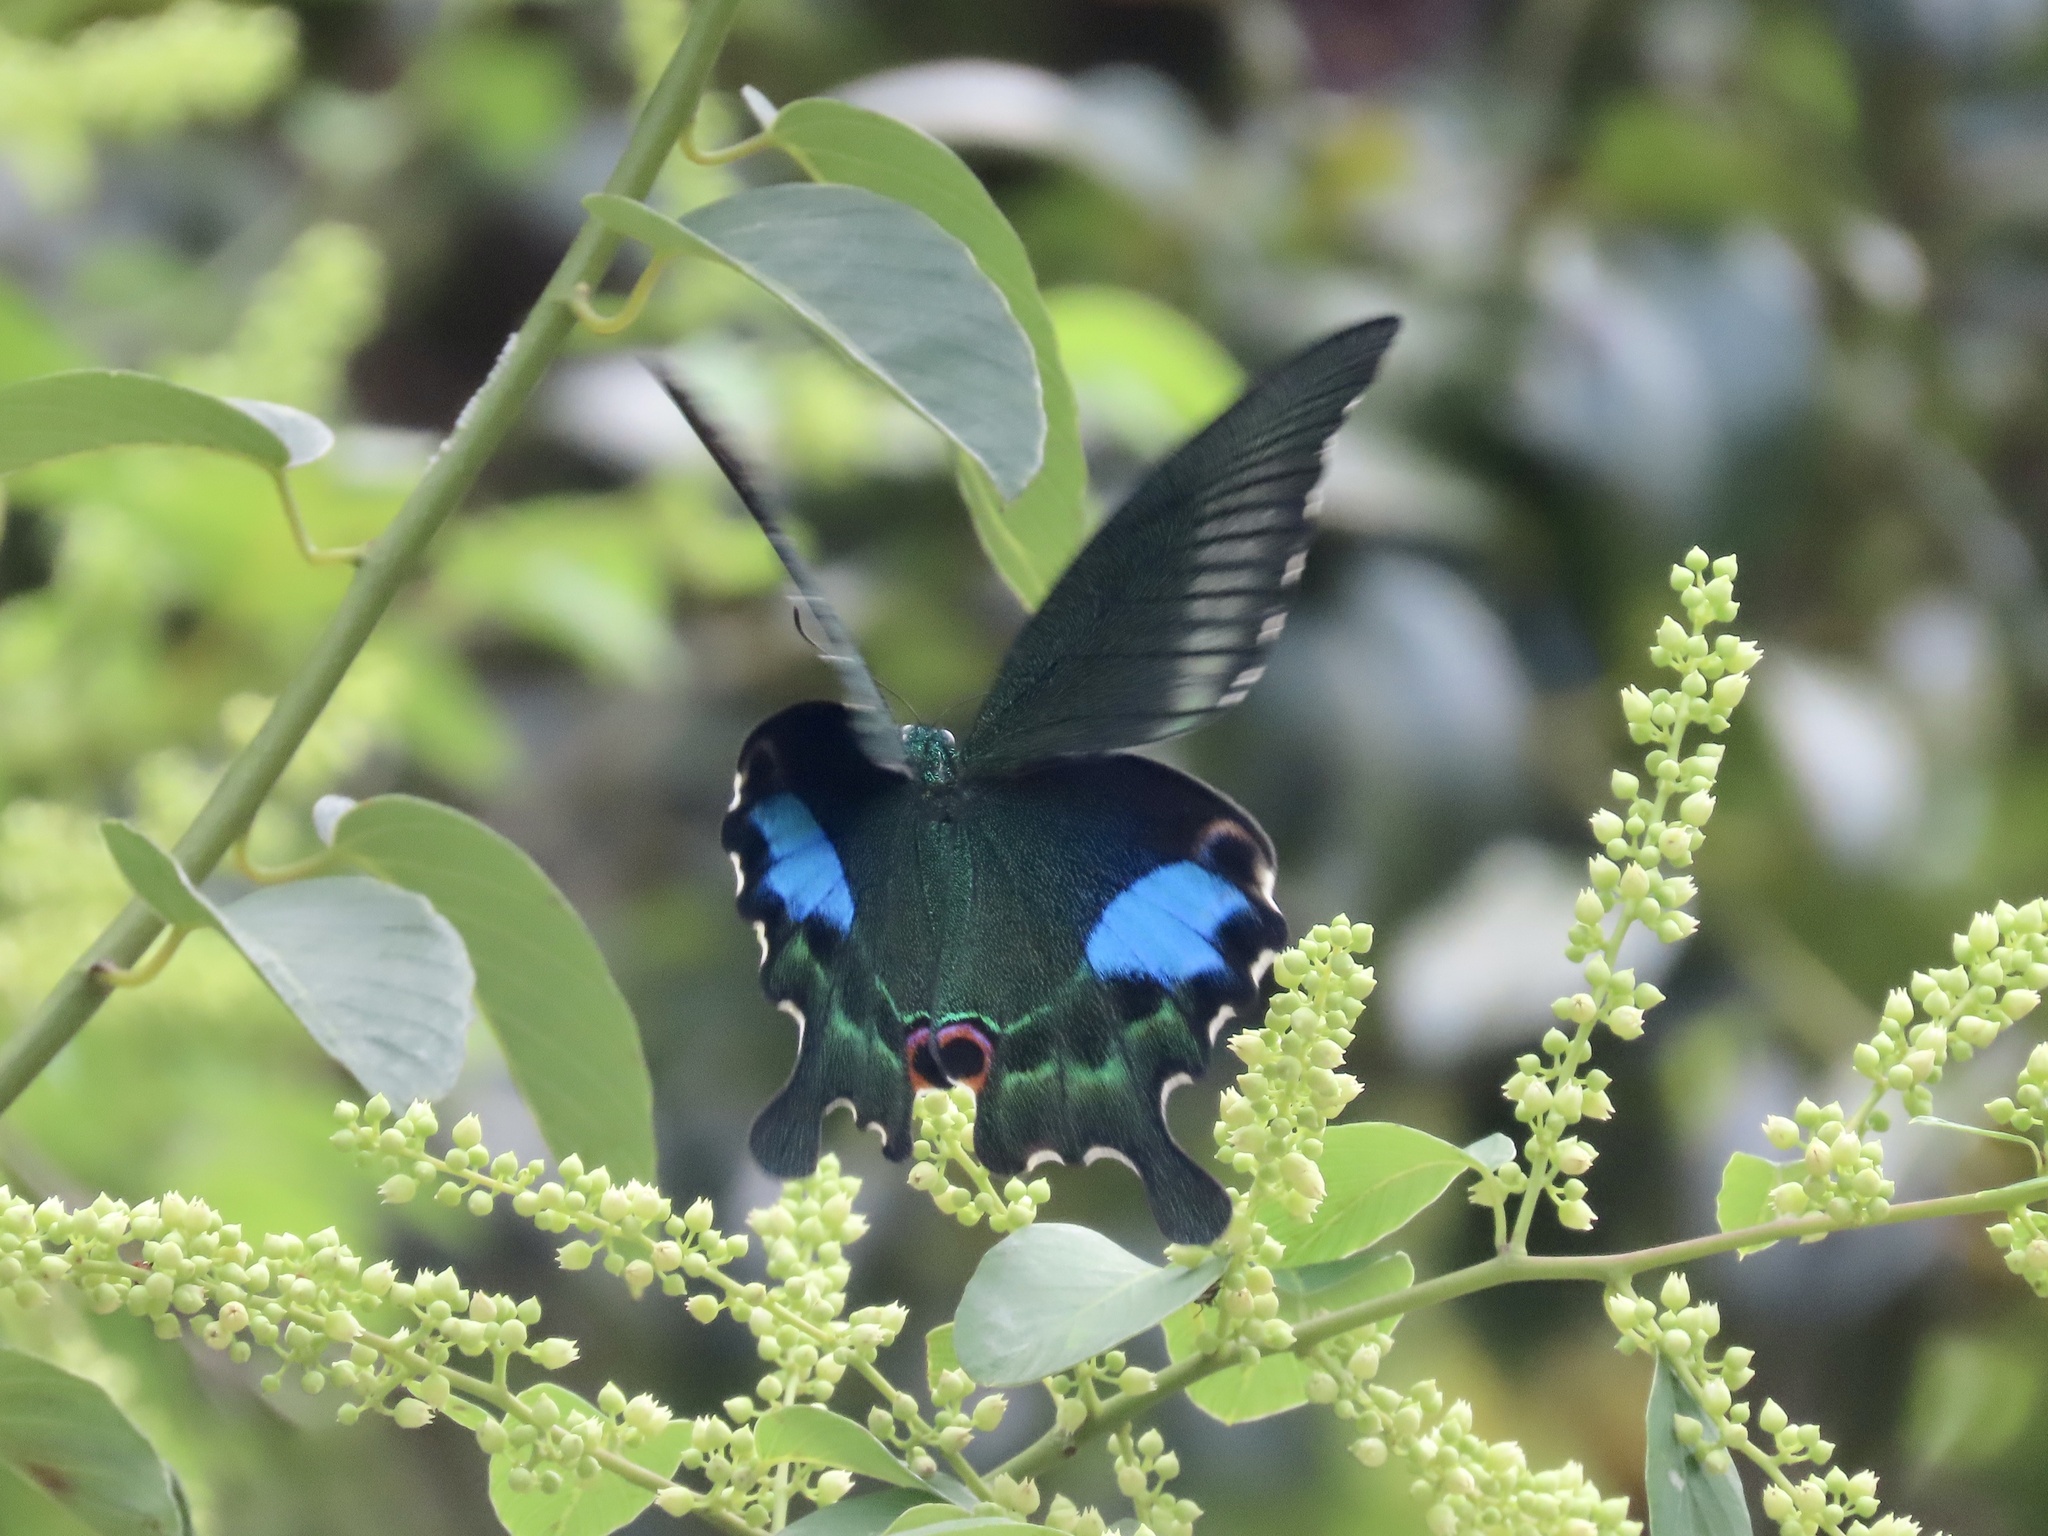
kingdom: Animalia
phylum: Arthropoda
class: Insecta
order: Lepidoptera
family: Papilionidae
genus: Papilio
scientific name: Papilio paris
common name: Paris peacock
